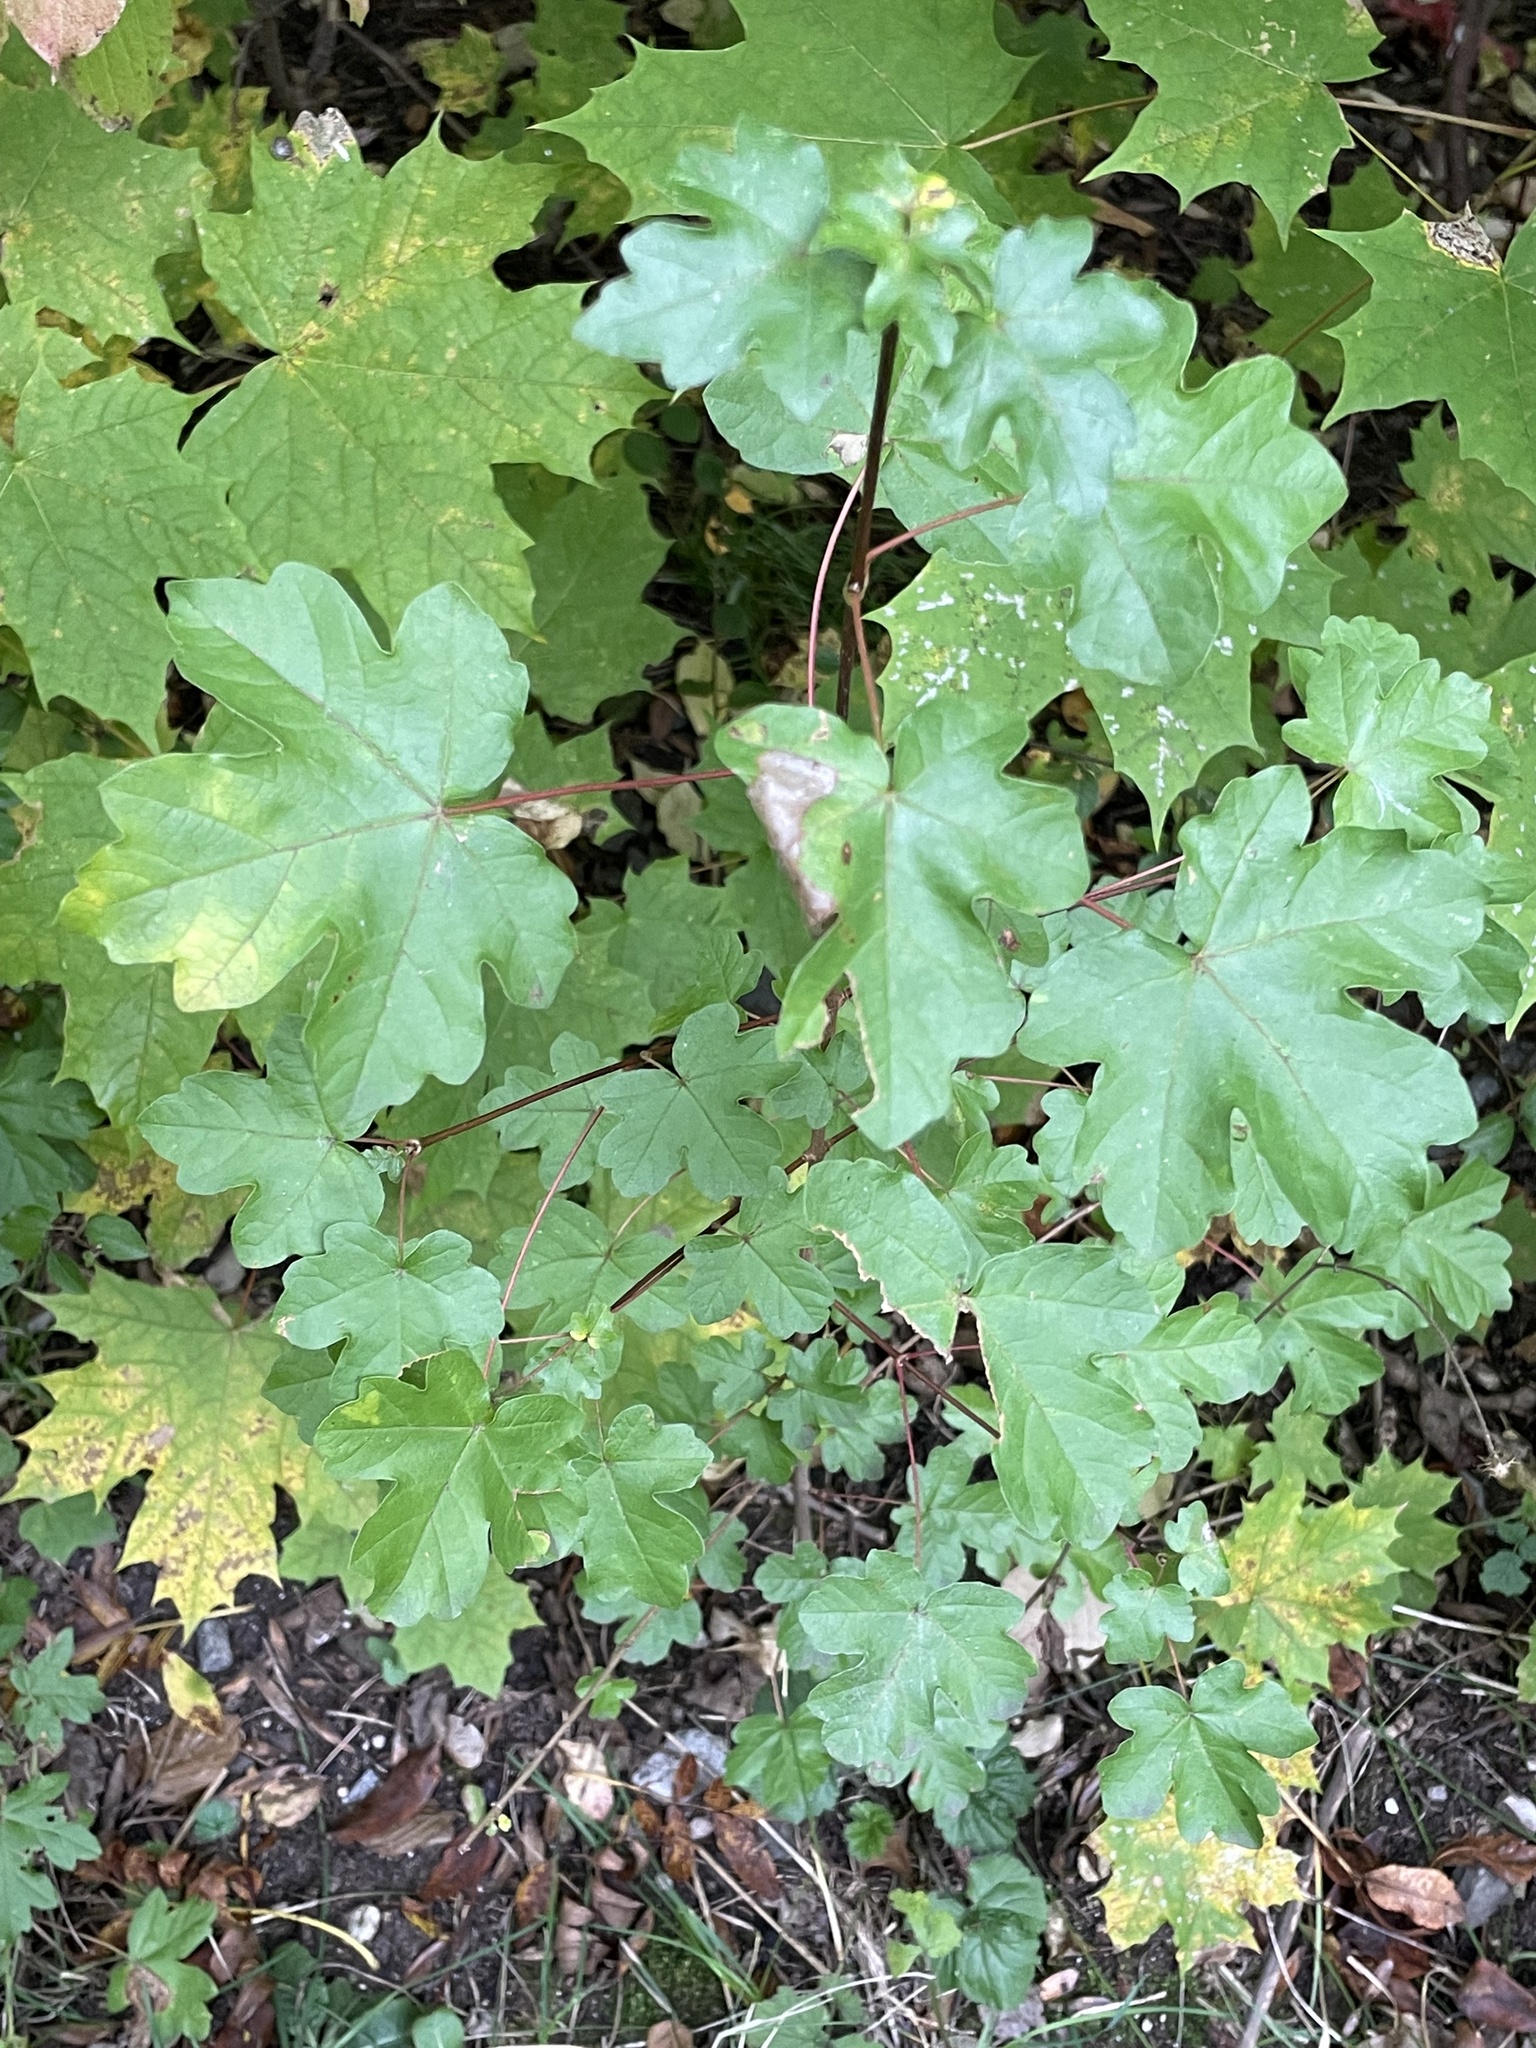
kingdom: Plantae
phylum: Tracheophyta
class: Magnoliopsida
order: Sapindales
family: Sapindaceae
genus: Acer
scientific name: Acer campestre
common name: Field maple
